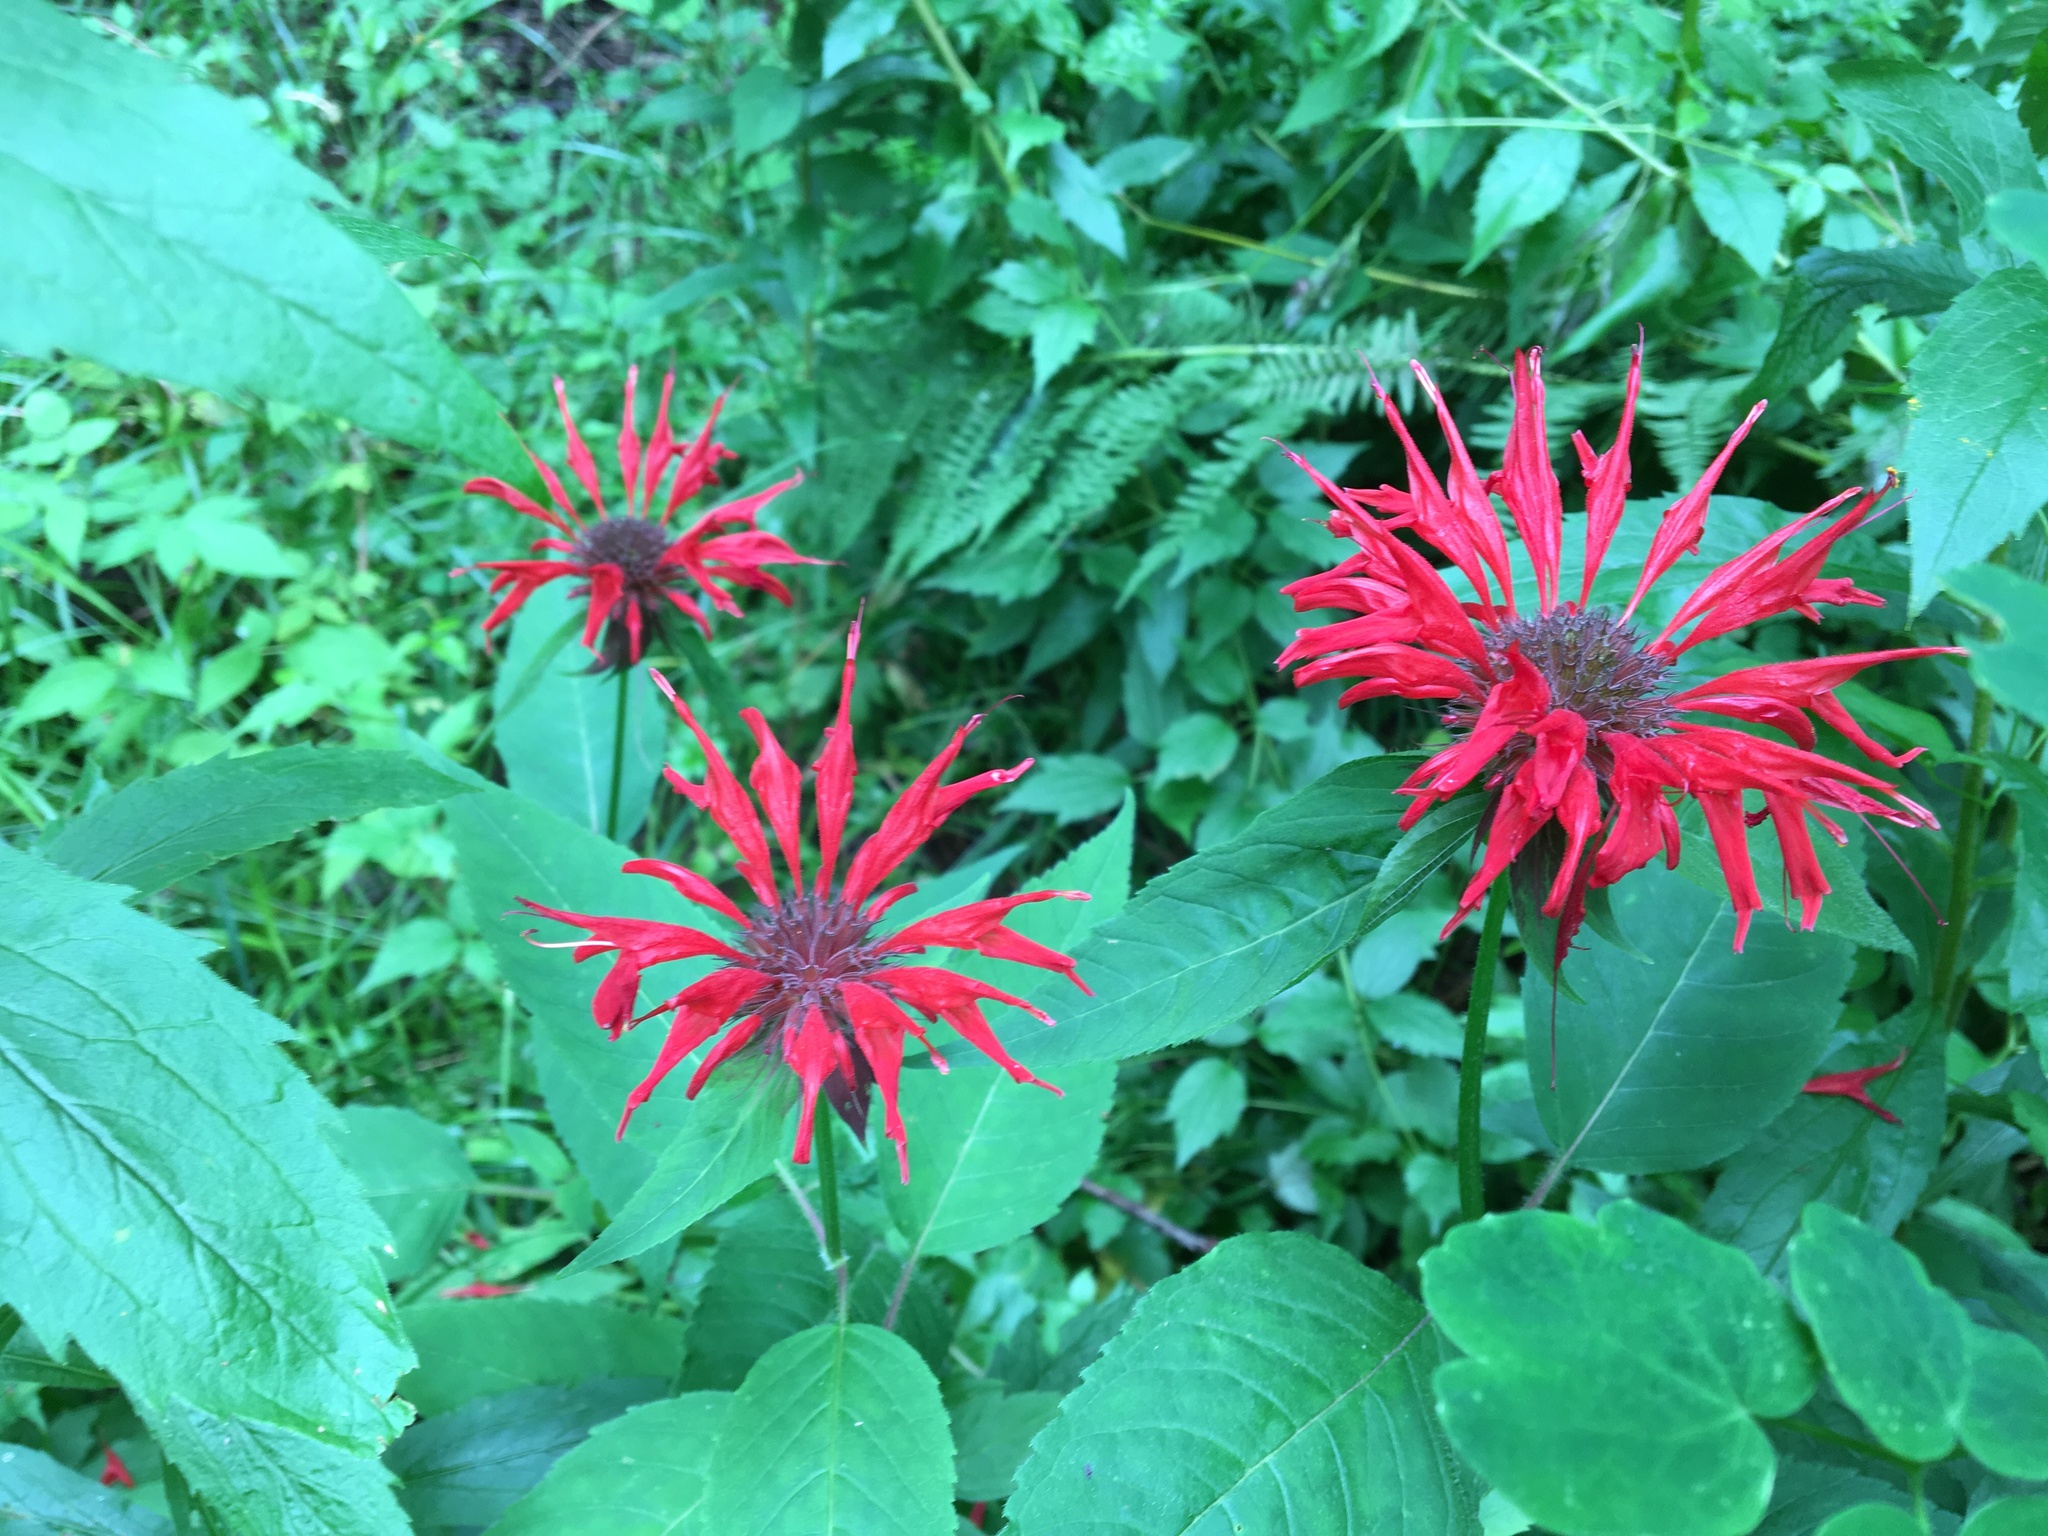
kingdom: Plantae
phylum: Tracheophyta
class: Magnoliopsida
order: Lamiales
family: Lamiaceae
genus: Monarda
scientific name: Monarda didyma
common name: Beebalm
